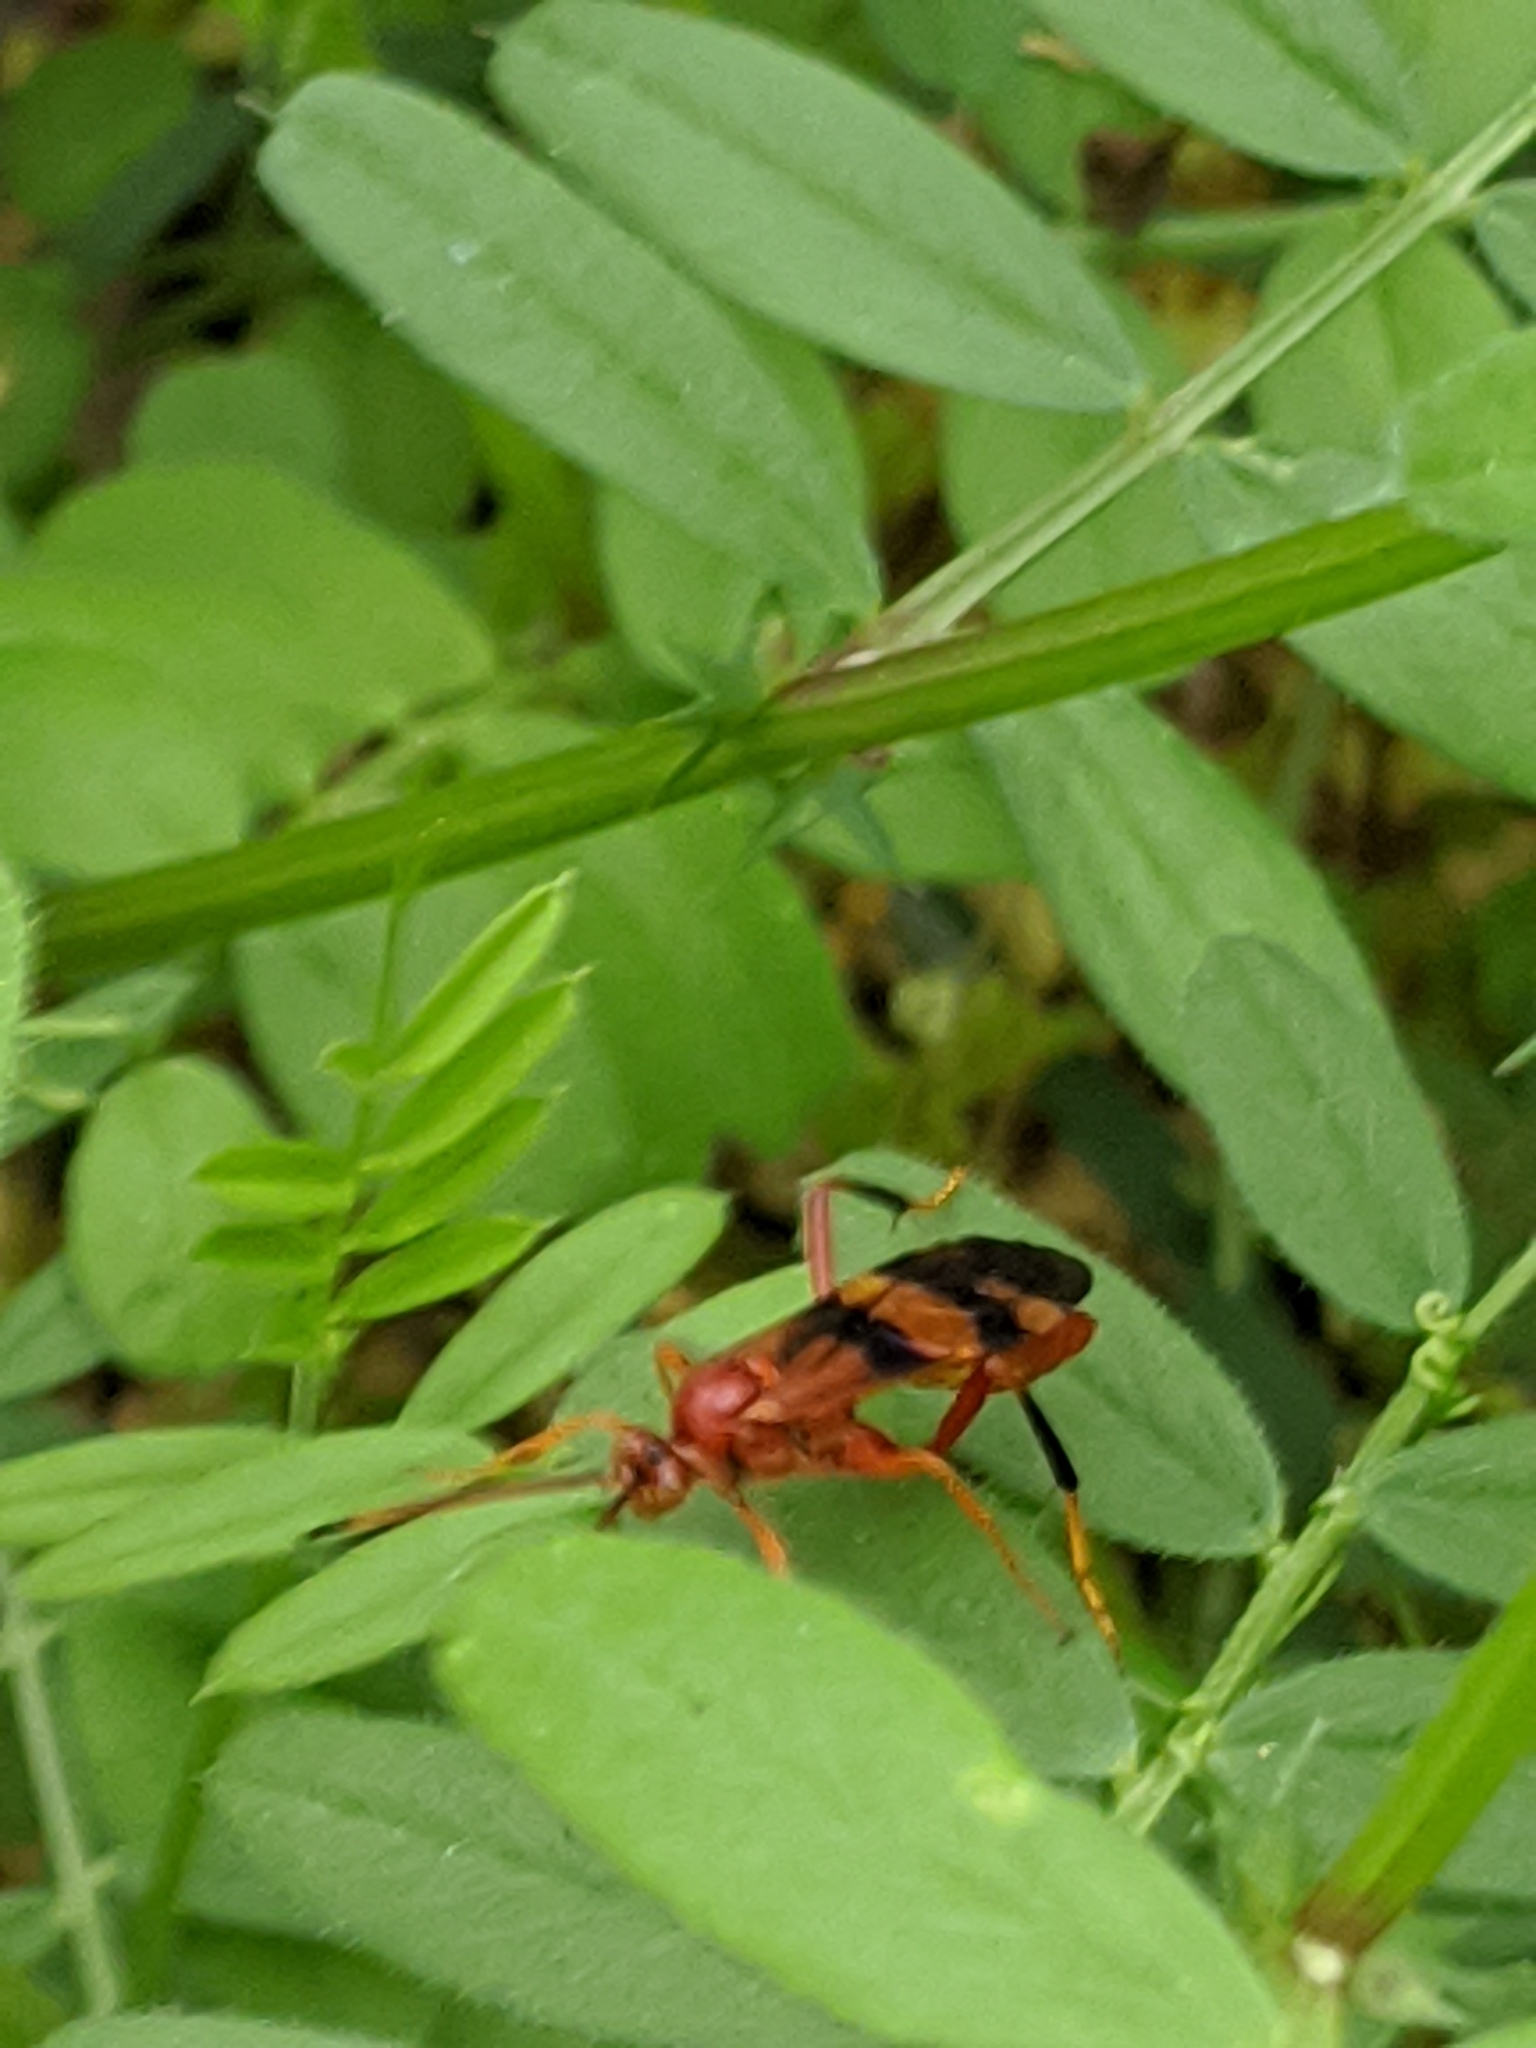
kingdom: Animalia
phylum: Arthropoda
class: Insecta
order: Hymenoptera
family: Ichneumonidae
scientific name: Ichneumonidae
